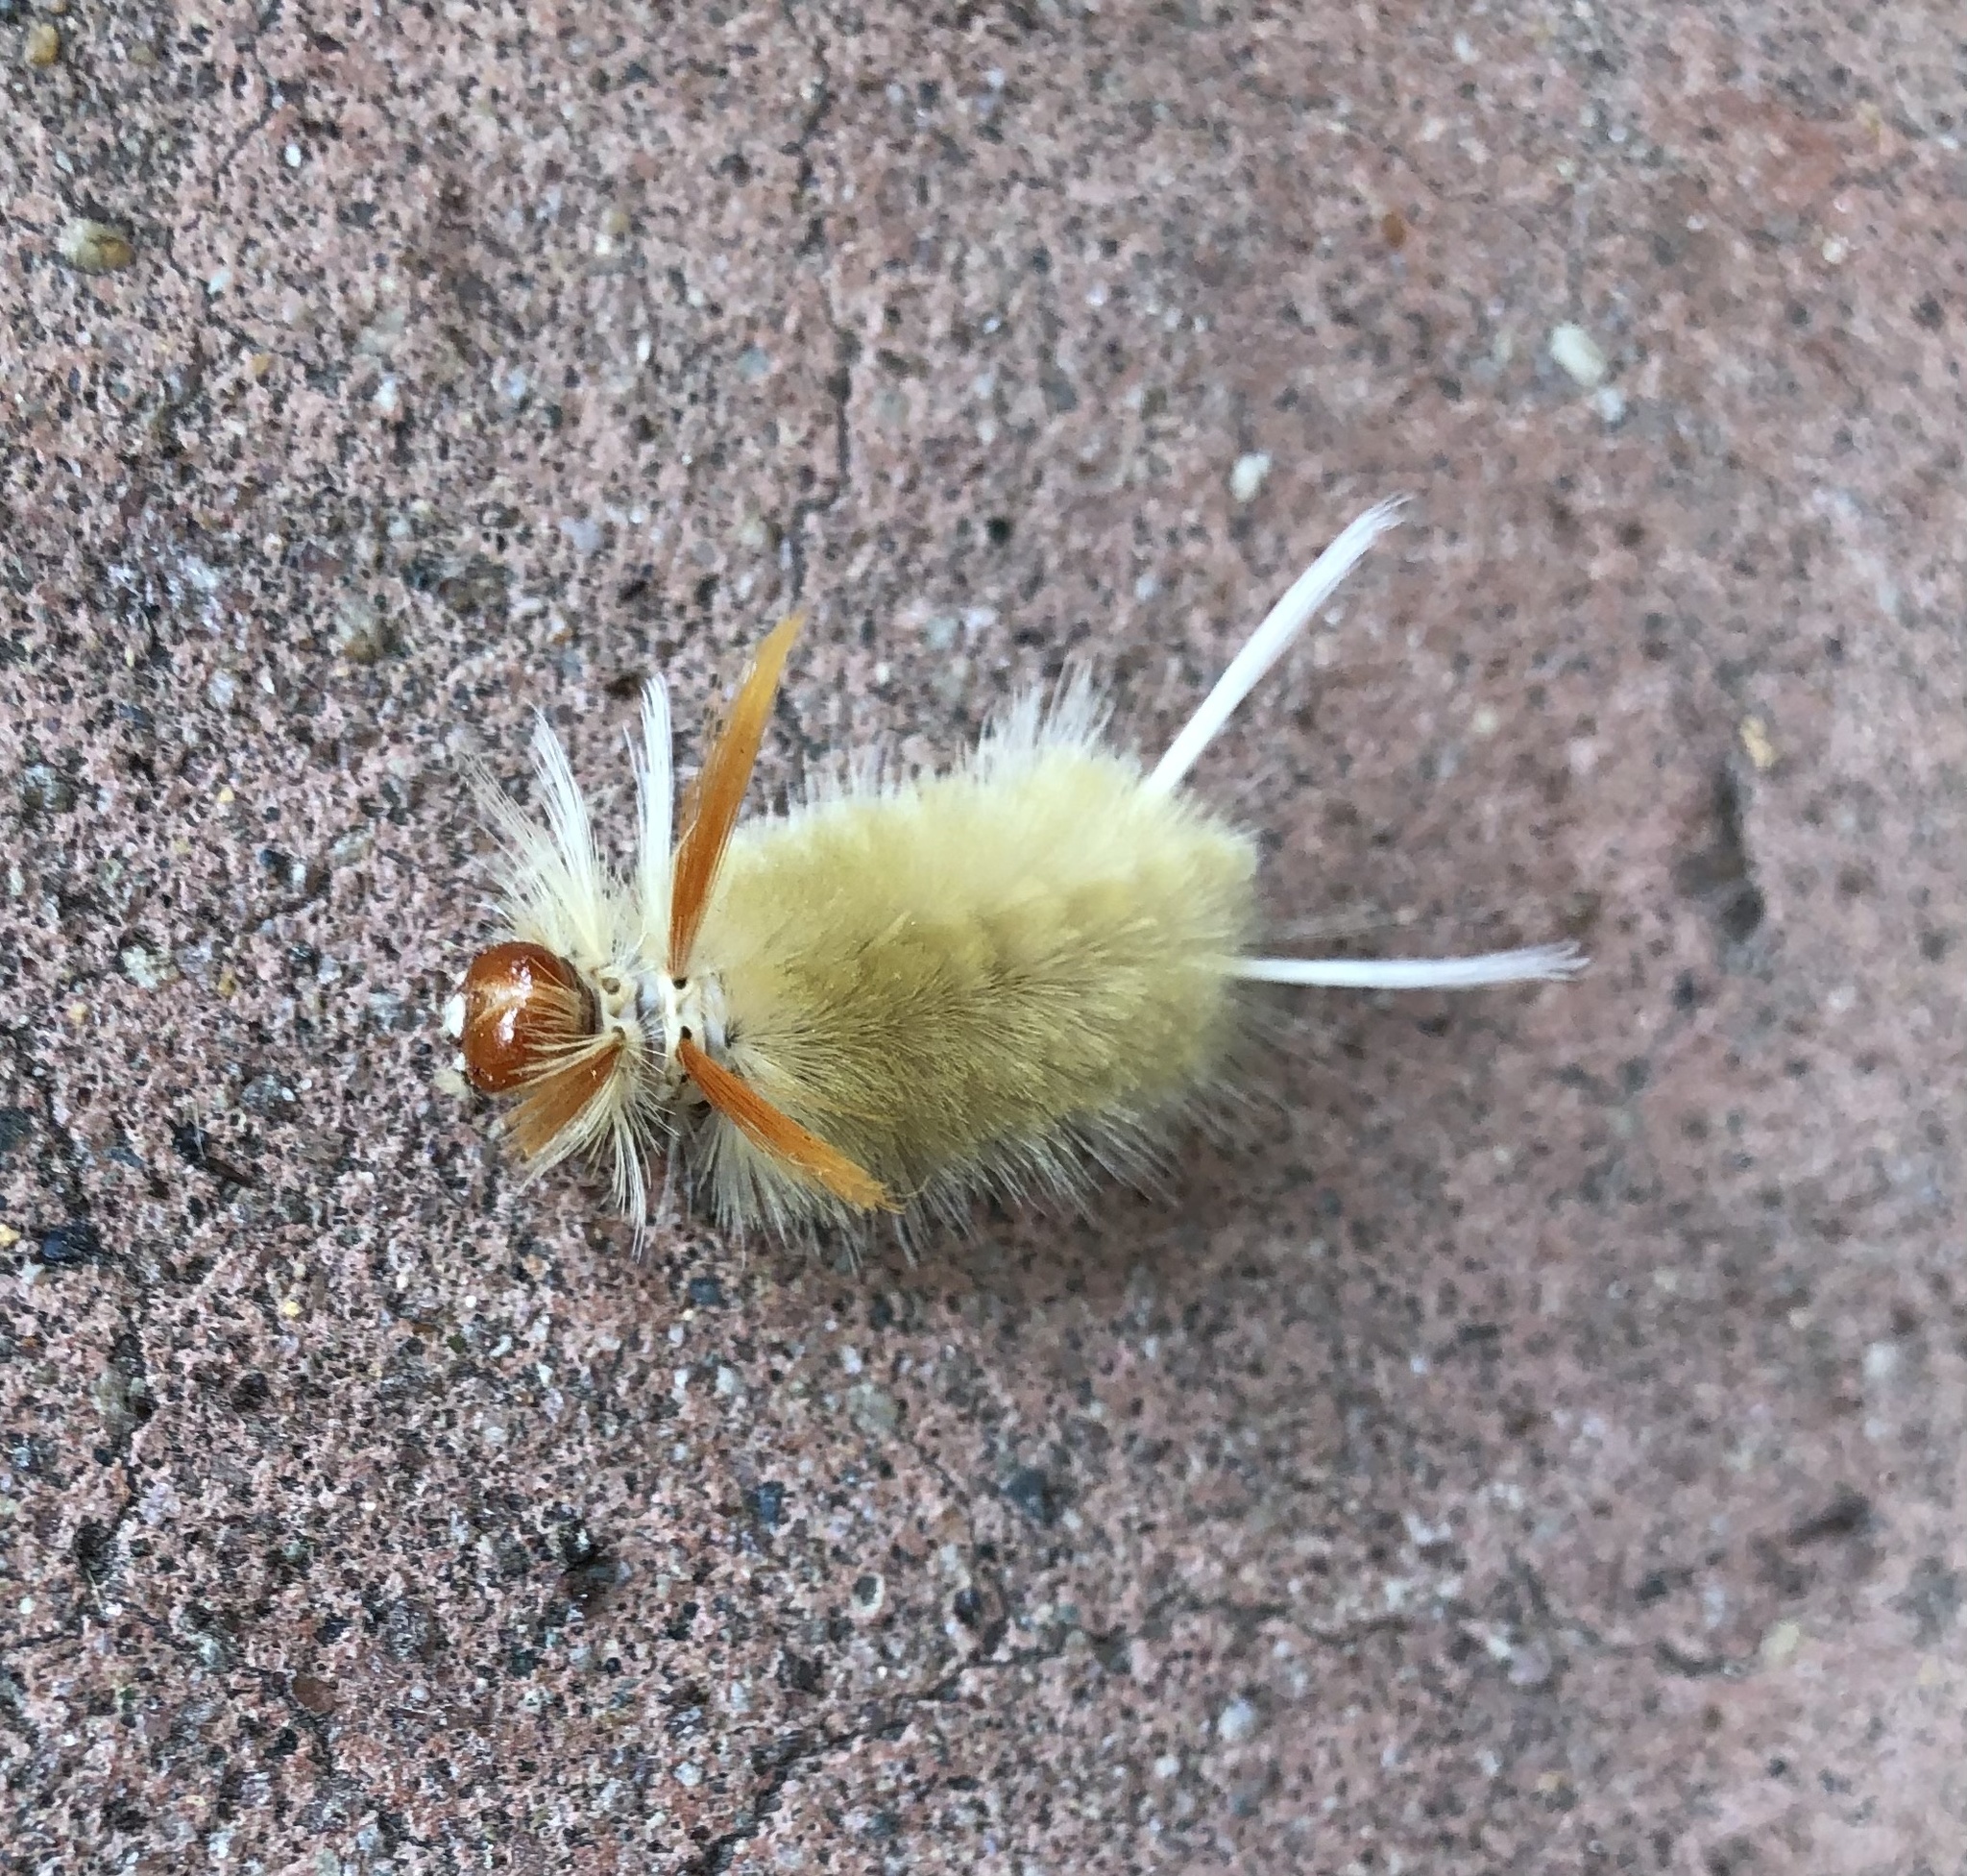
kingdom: Animalia
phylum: Arthropoda
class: Insecta
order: Lepidoptera
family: Erebidae
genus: Halysidota
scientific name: Halysidota harrisii
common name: Sycamore tussock moth
